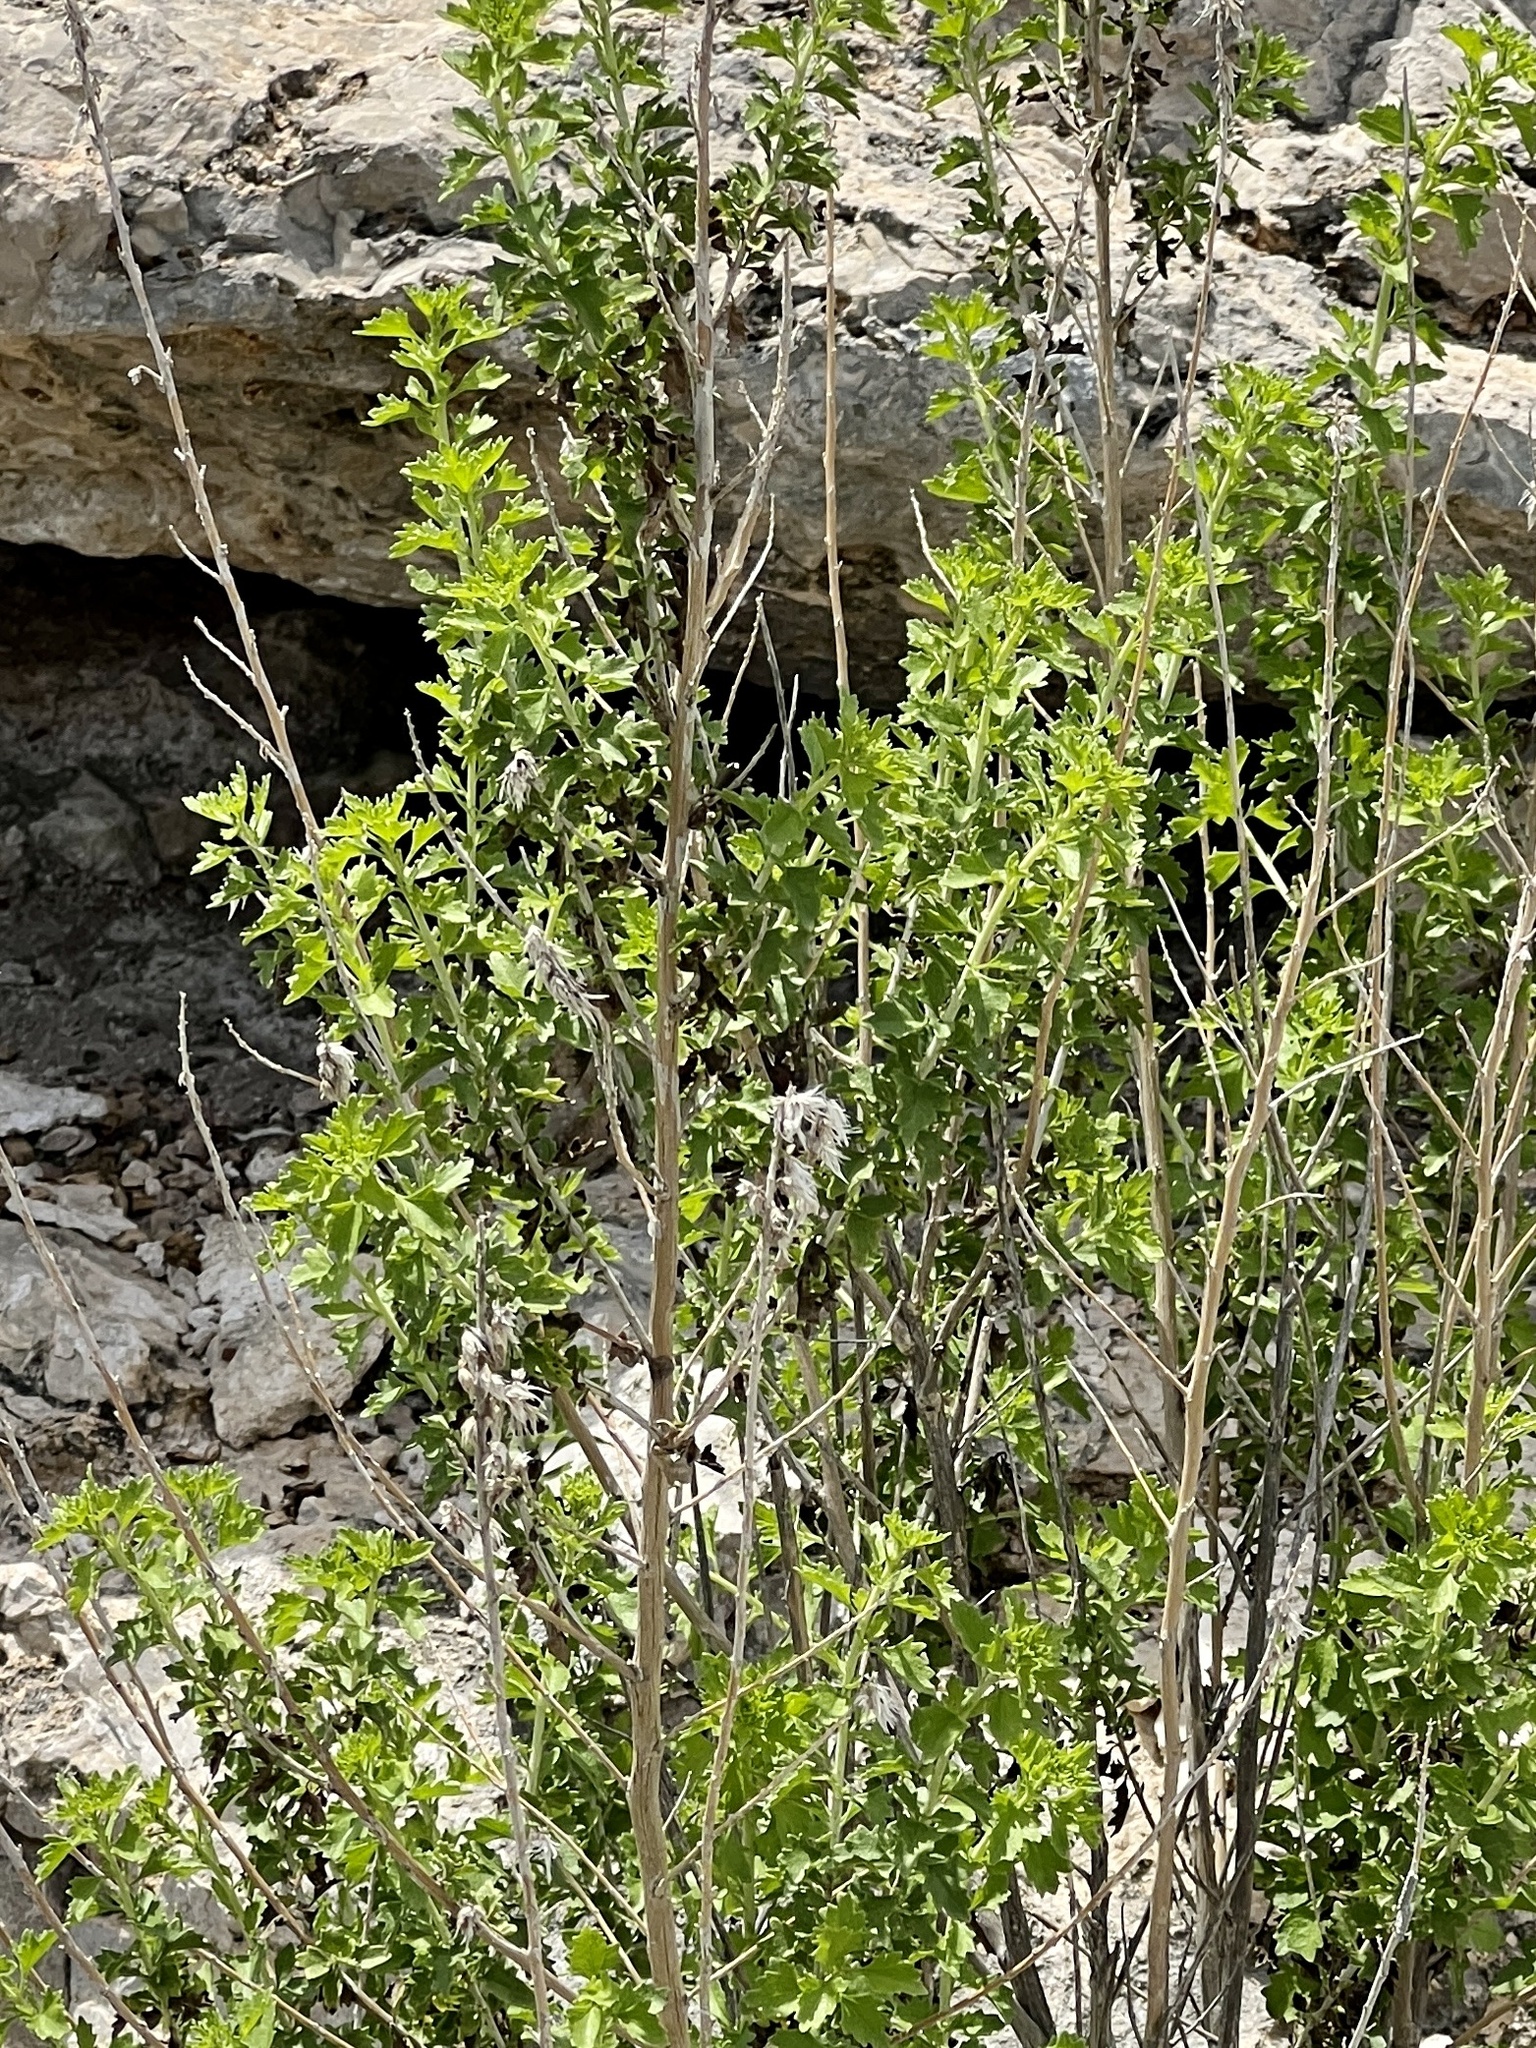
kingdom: Plantae
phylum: Tracheophyta
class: Magnoliopsida
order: Asterales
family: Asteraceae
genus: Brickellia
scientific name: Brickellia laciniata
